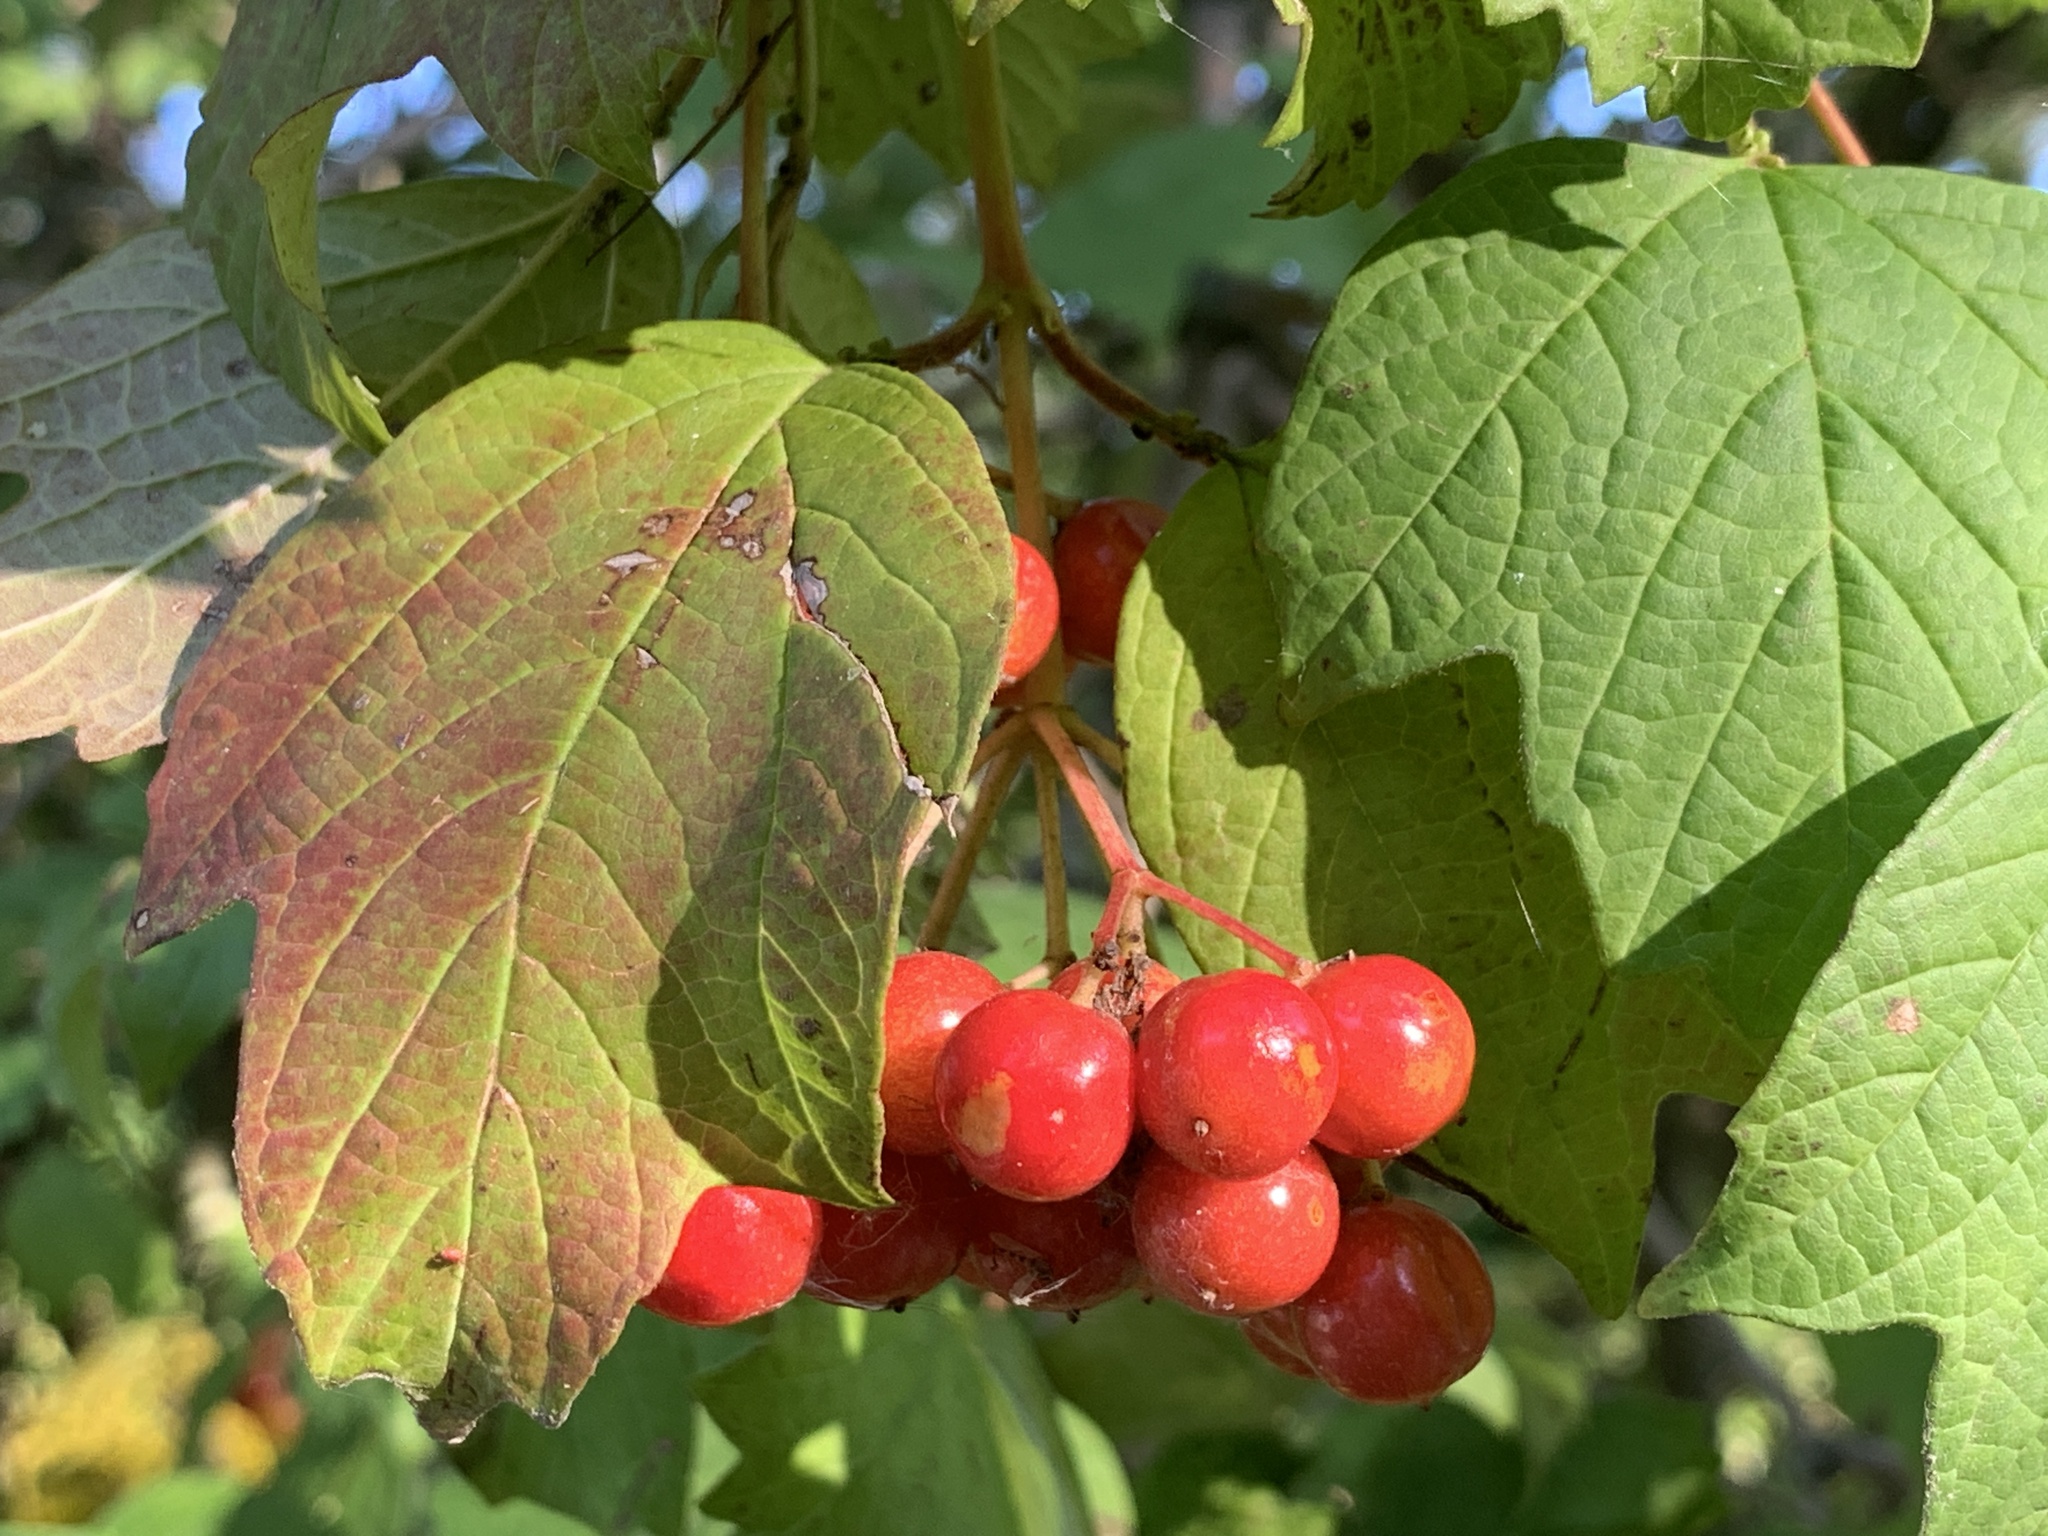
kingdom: Plantae
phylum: Tracheophyta
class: Magnoliopsida
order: Dipsacales
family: Viburnaceae
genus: Viburnum
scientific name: Viburnum opulus
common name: Guelder-rose
